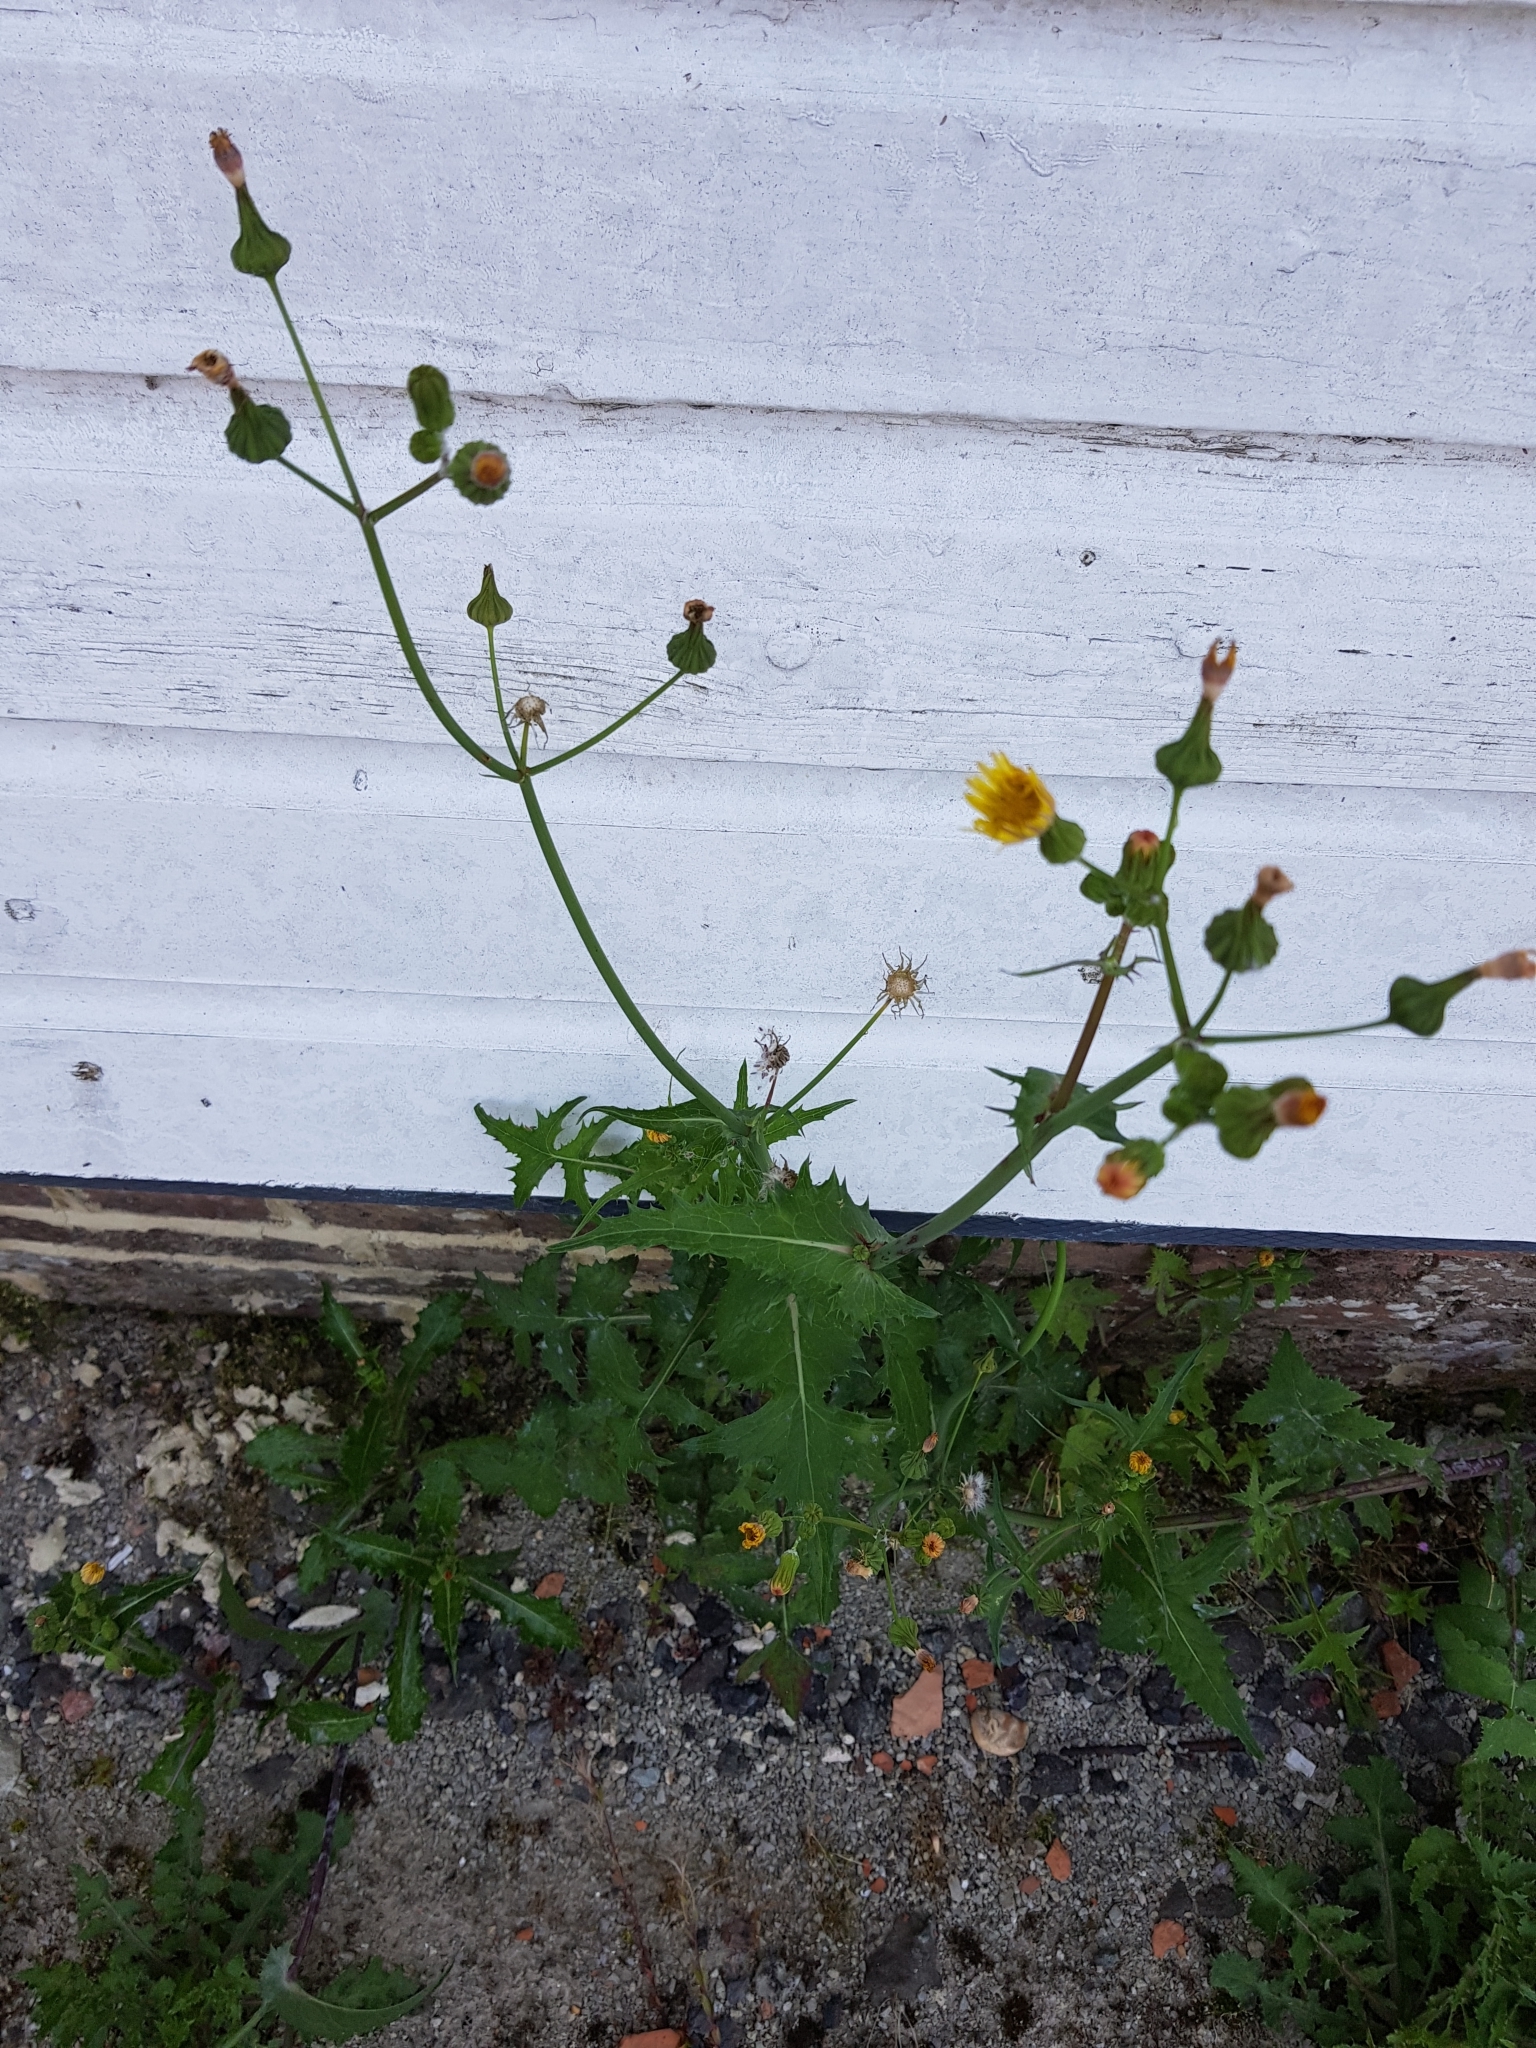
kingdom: Plantae
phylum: Tracheophyta
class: Magnoliopsida
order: Asterales
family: Asteraceae
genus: Sonchus
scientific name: Sonchus oleraceus
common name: Common sowthistle
